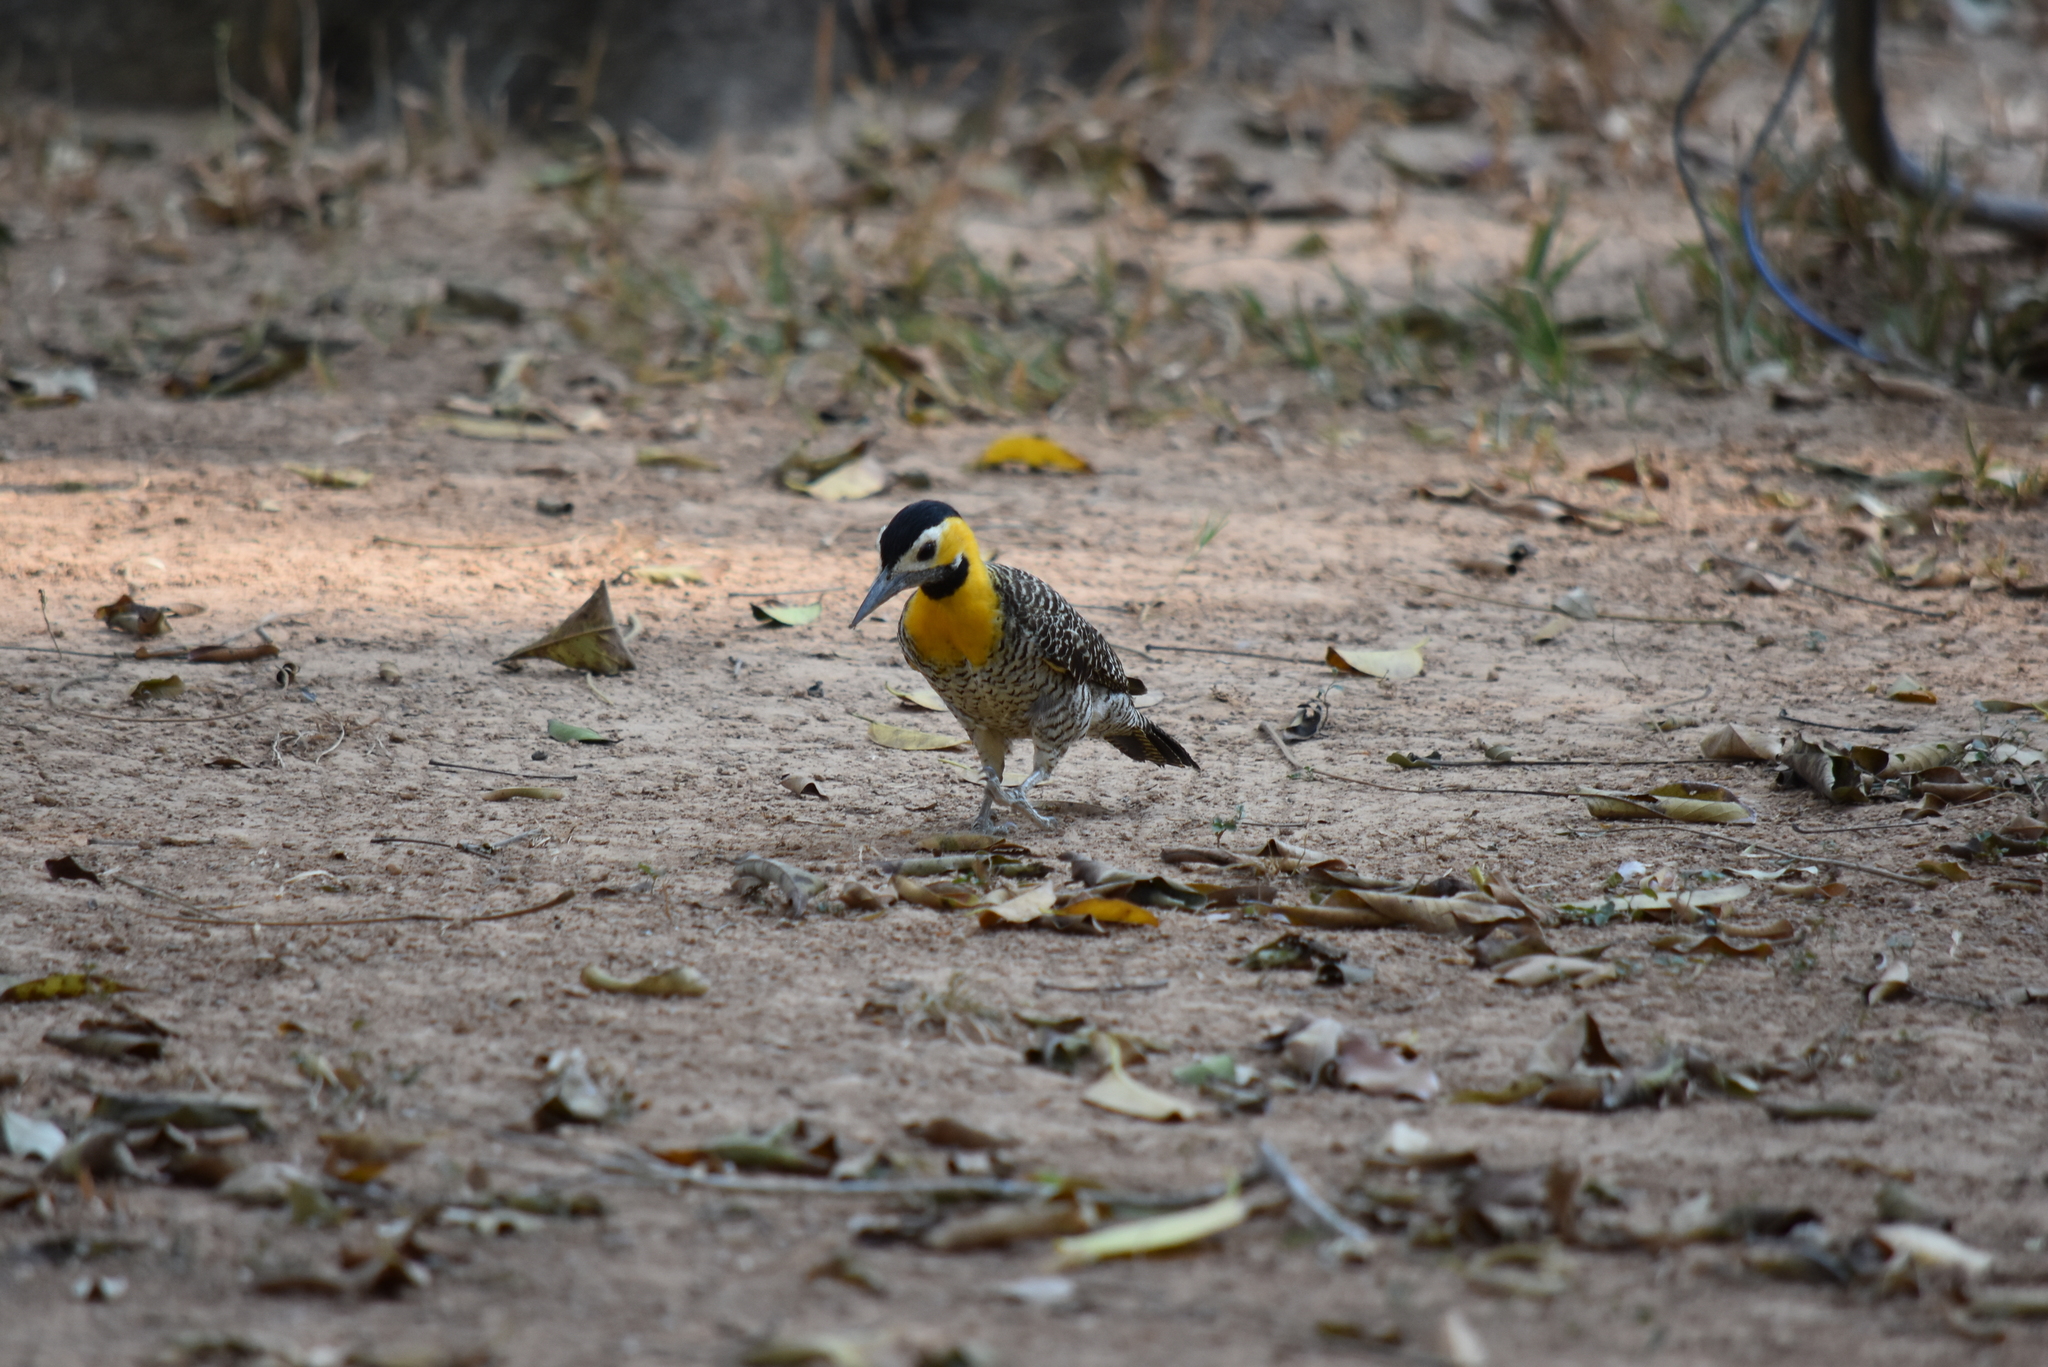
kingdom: Animalia
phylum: Chordata
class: Aves
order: Piciformes
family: Picidae
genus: Colaptes
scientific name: Colaptes campestris
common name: Campo flicker
